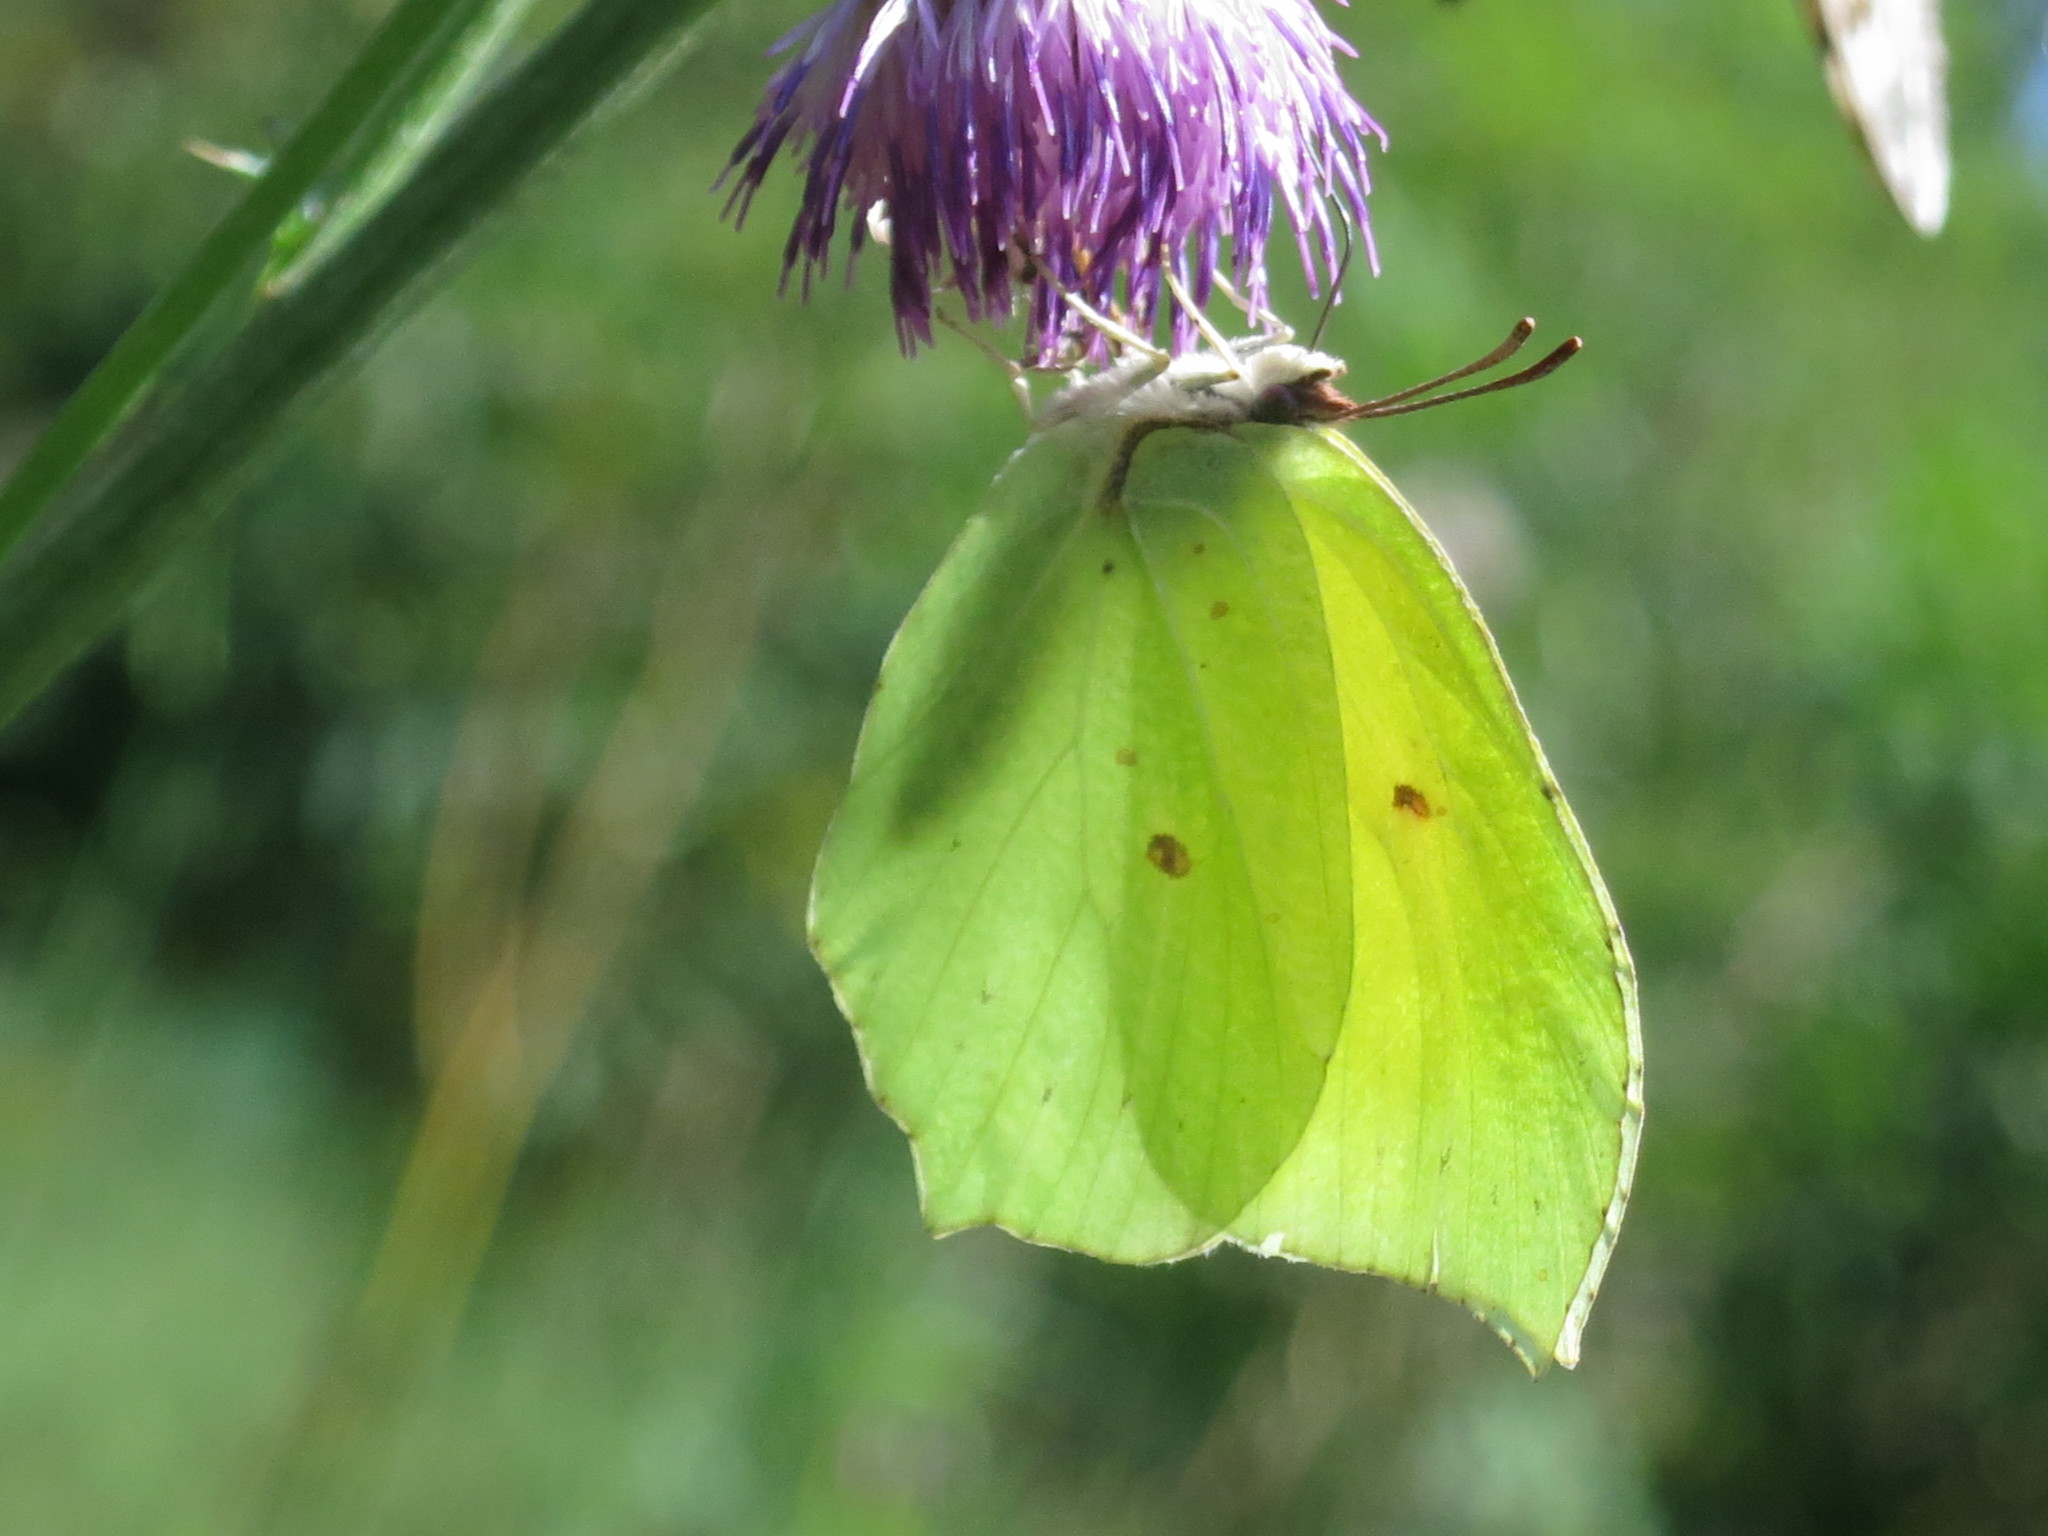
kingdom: Animalia
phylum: Arthropoda
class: Insecta
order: Lepidoptera
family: Pieridae
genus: Gonepteryx
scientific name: Gonepteryx aspasia
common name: Lesser brimstone
